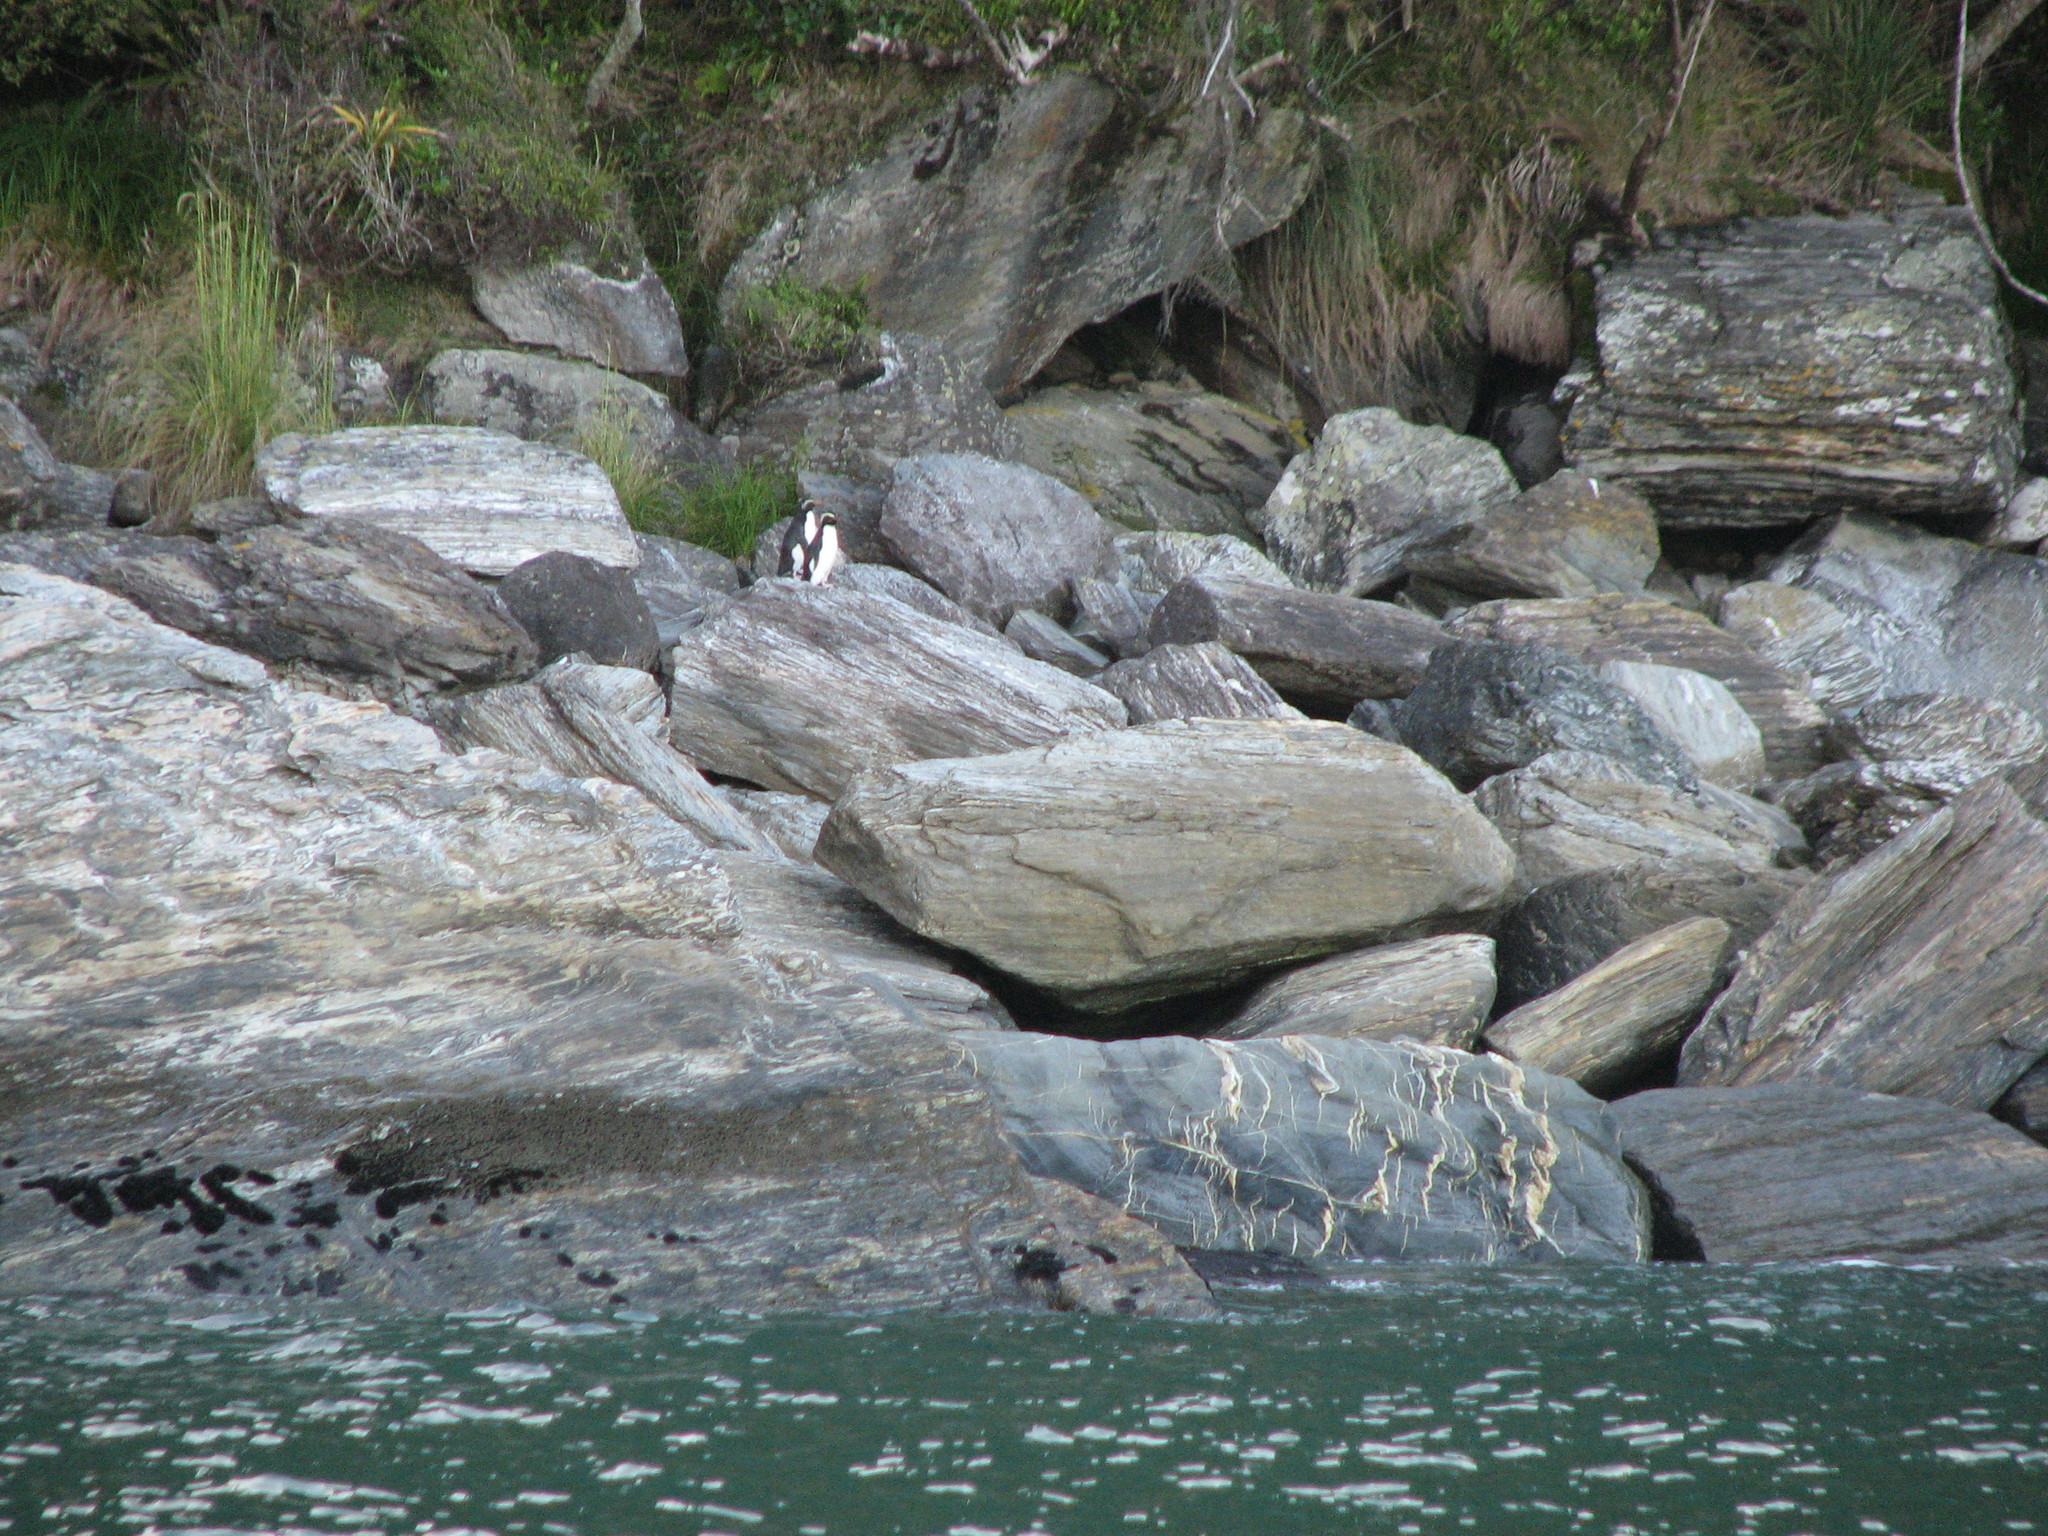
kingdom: Animalia
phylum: Chordata
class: Aves
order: Sphenisciformes
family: Spheniscidae
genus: Eudyptes
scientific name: Eudyptes pachyrhynchus
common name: Fiordland penguin
